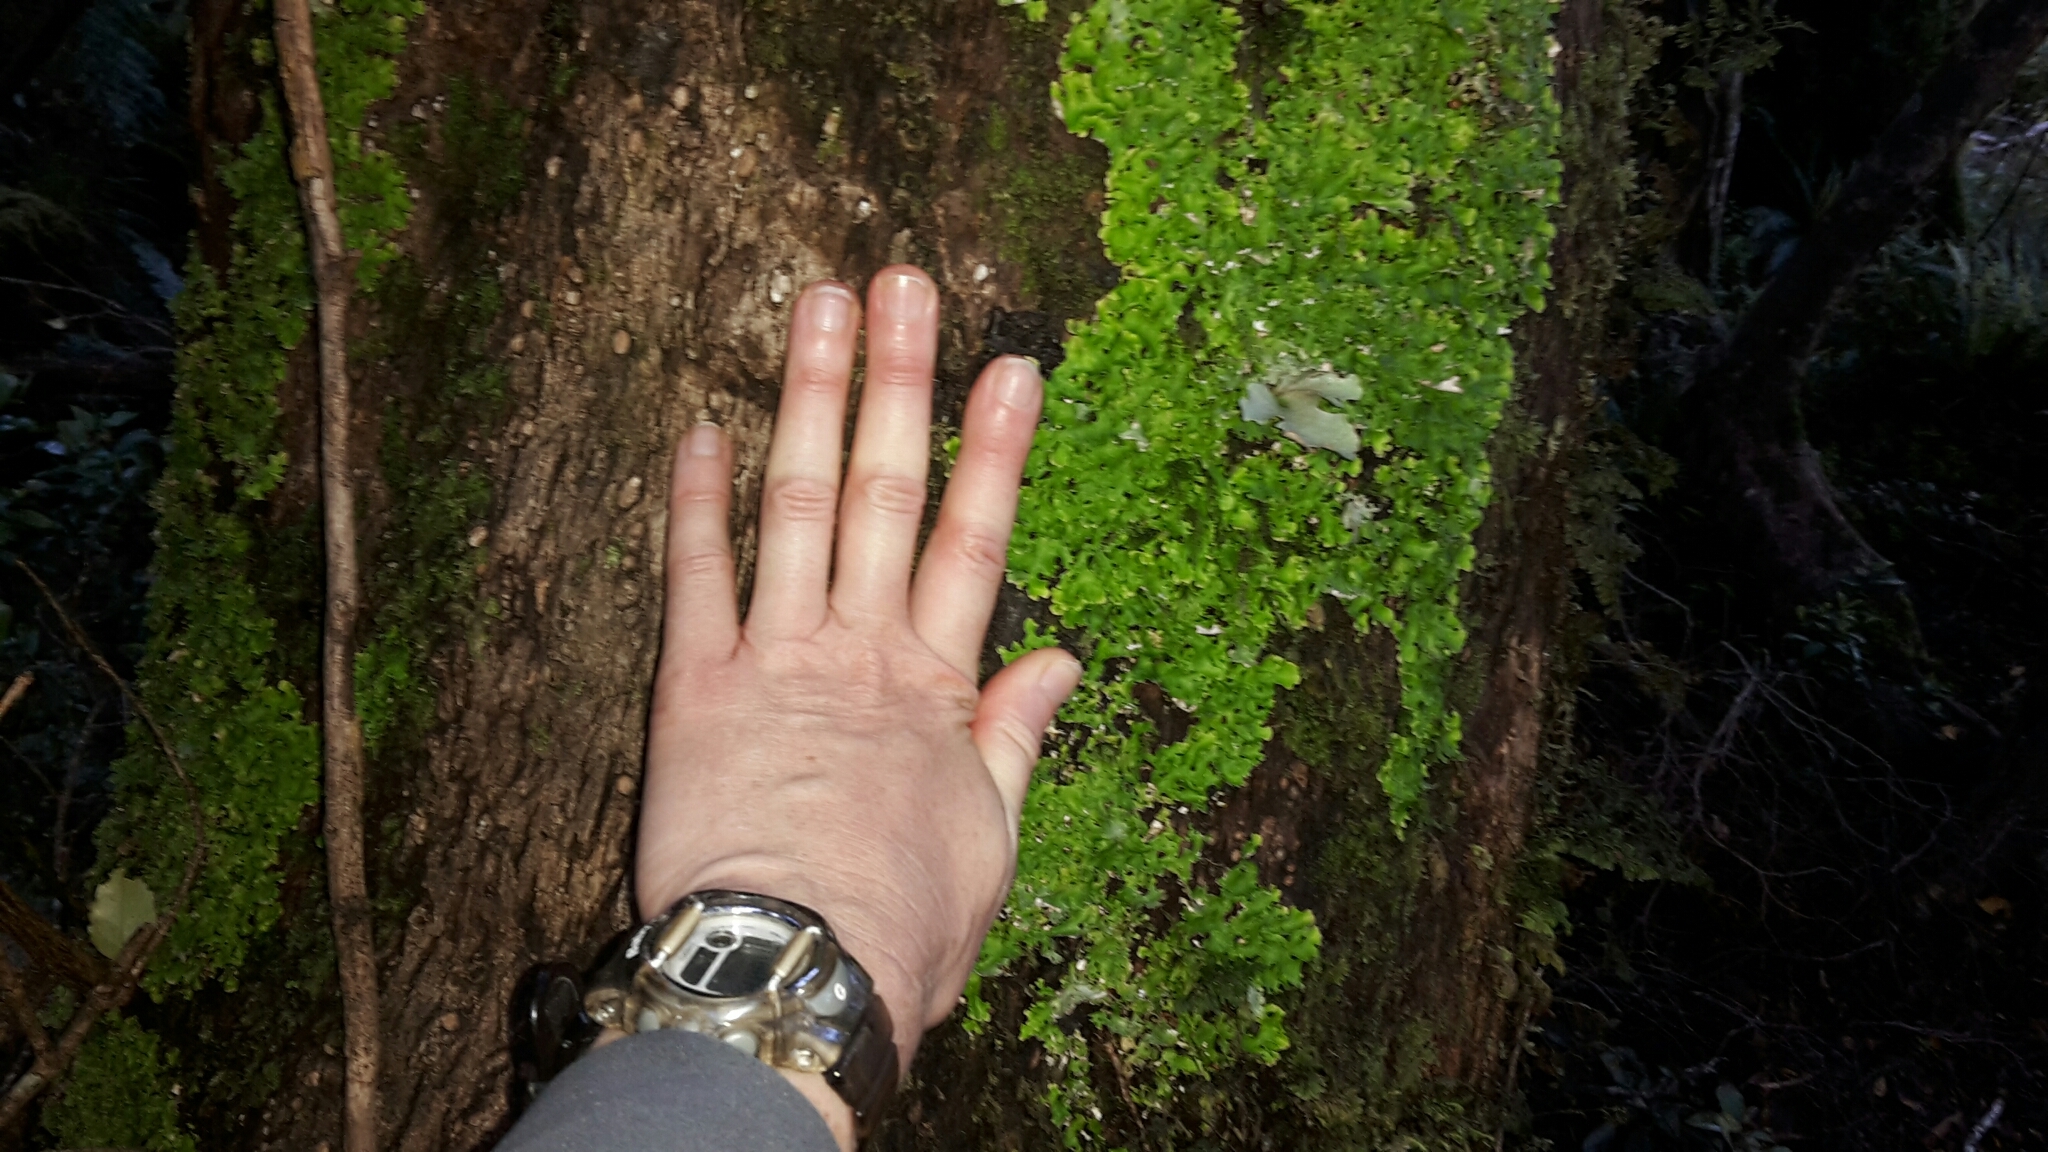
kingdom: Plantae
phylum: Tracheophyta
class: Magnoliopsida
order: Apiales
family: Griseliniaceae
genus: Griselinia
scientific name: Griselinia littoralis
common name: New zealand broadleaf
